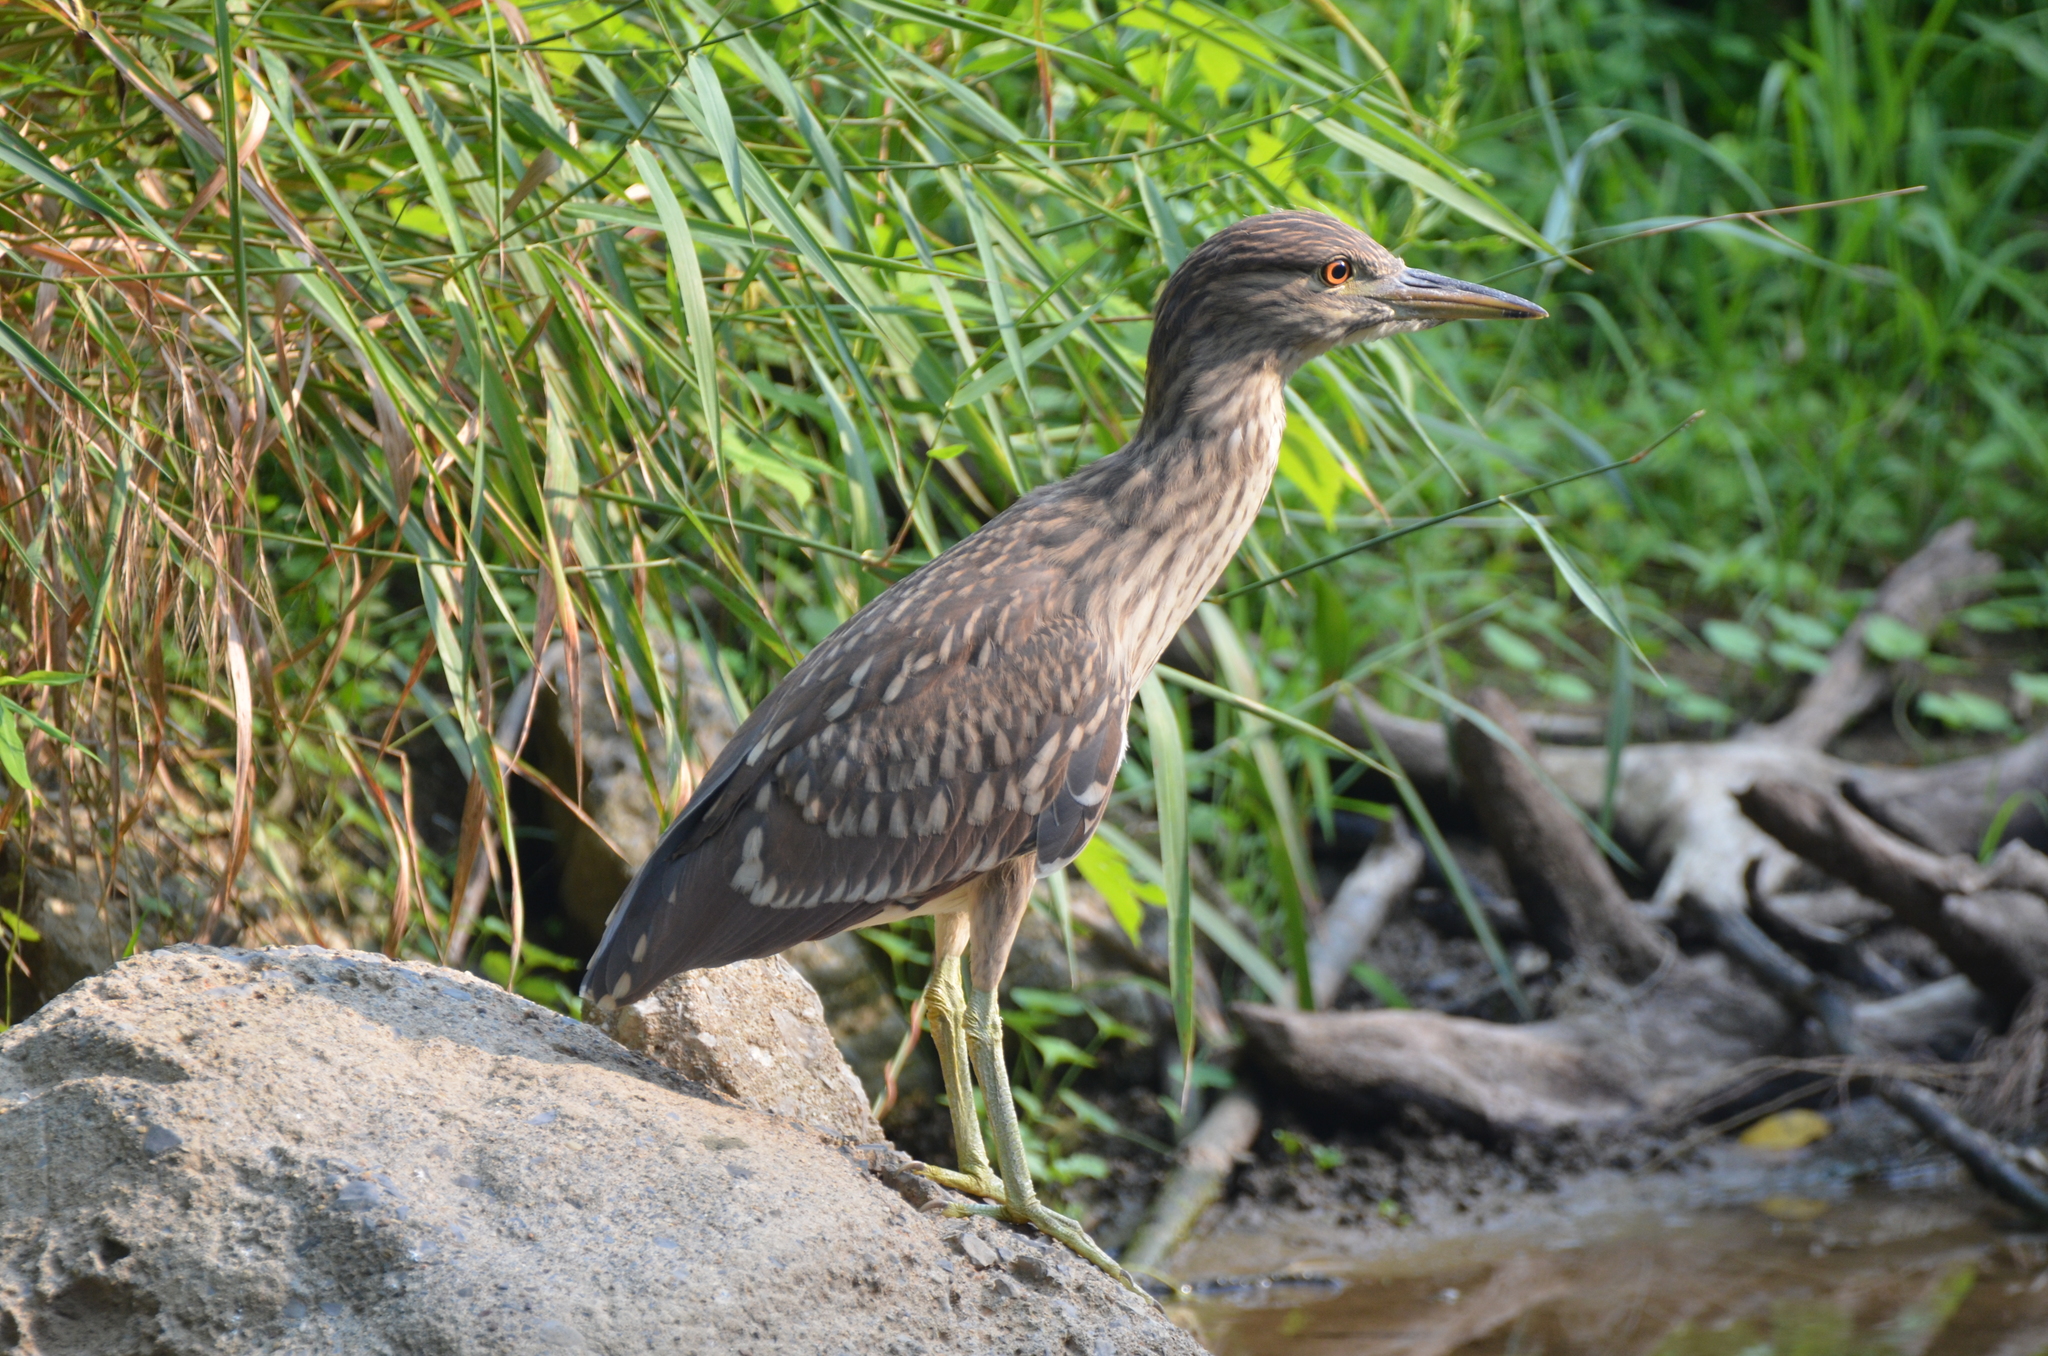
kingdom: Animalia
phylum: Chordata
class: Aves
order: Pelecaniformes
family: Ardeidae
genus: Nycticorax
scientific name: Nycticorax nycticorax
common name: Black-crowned night heron
